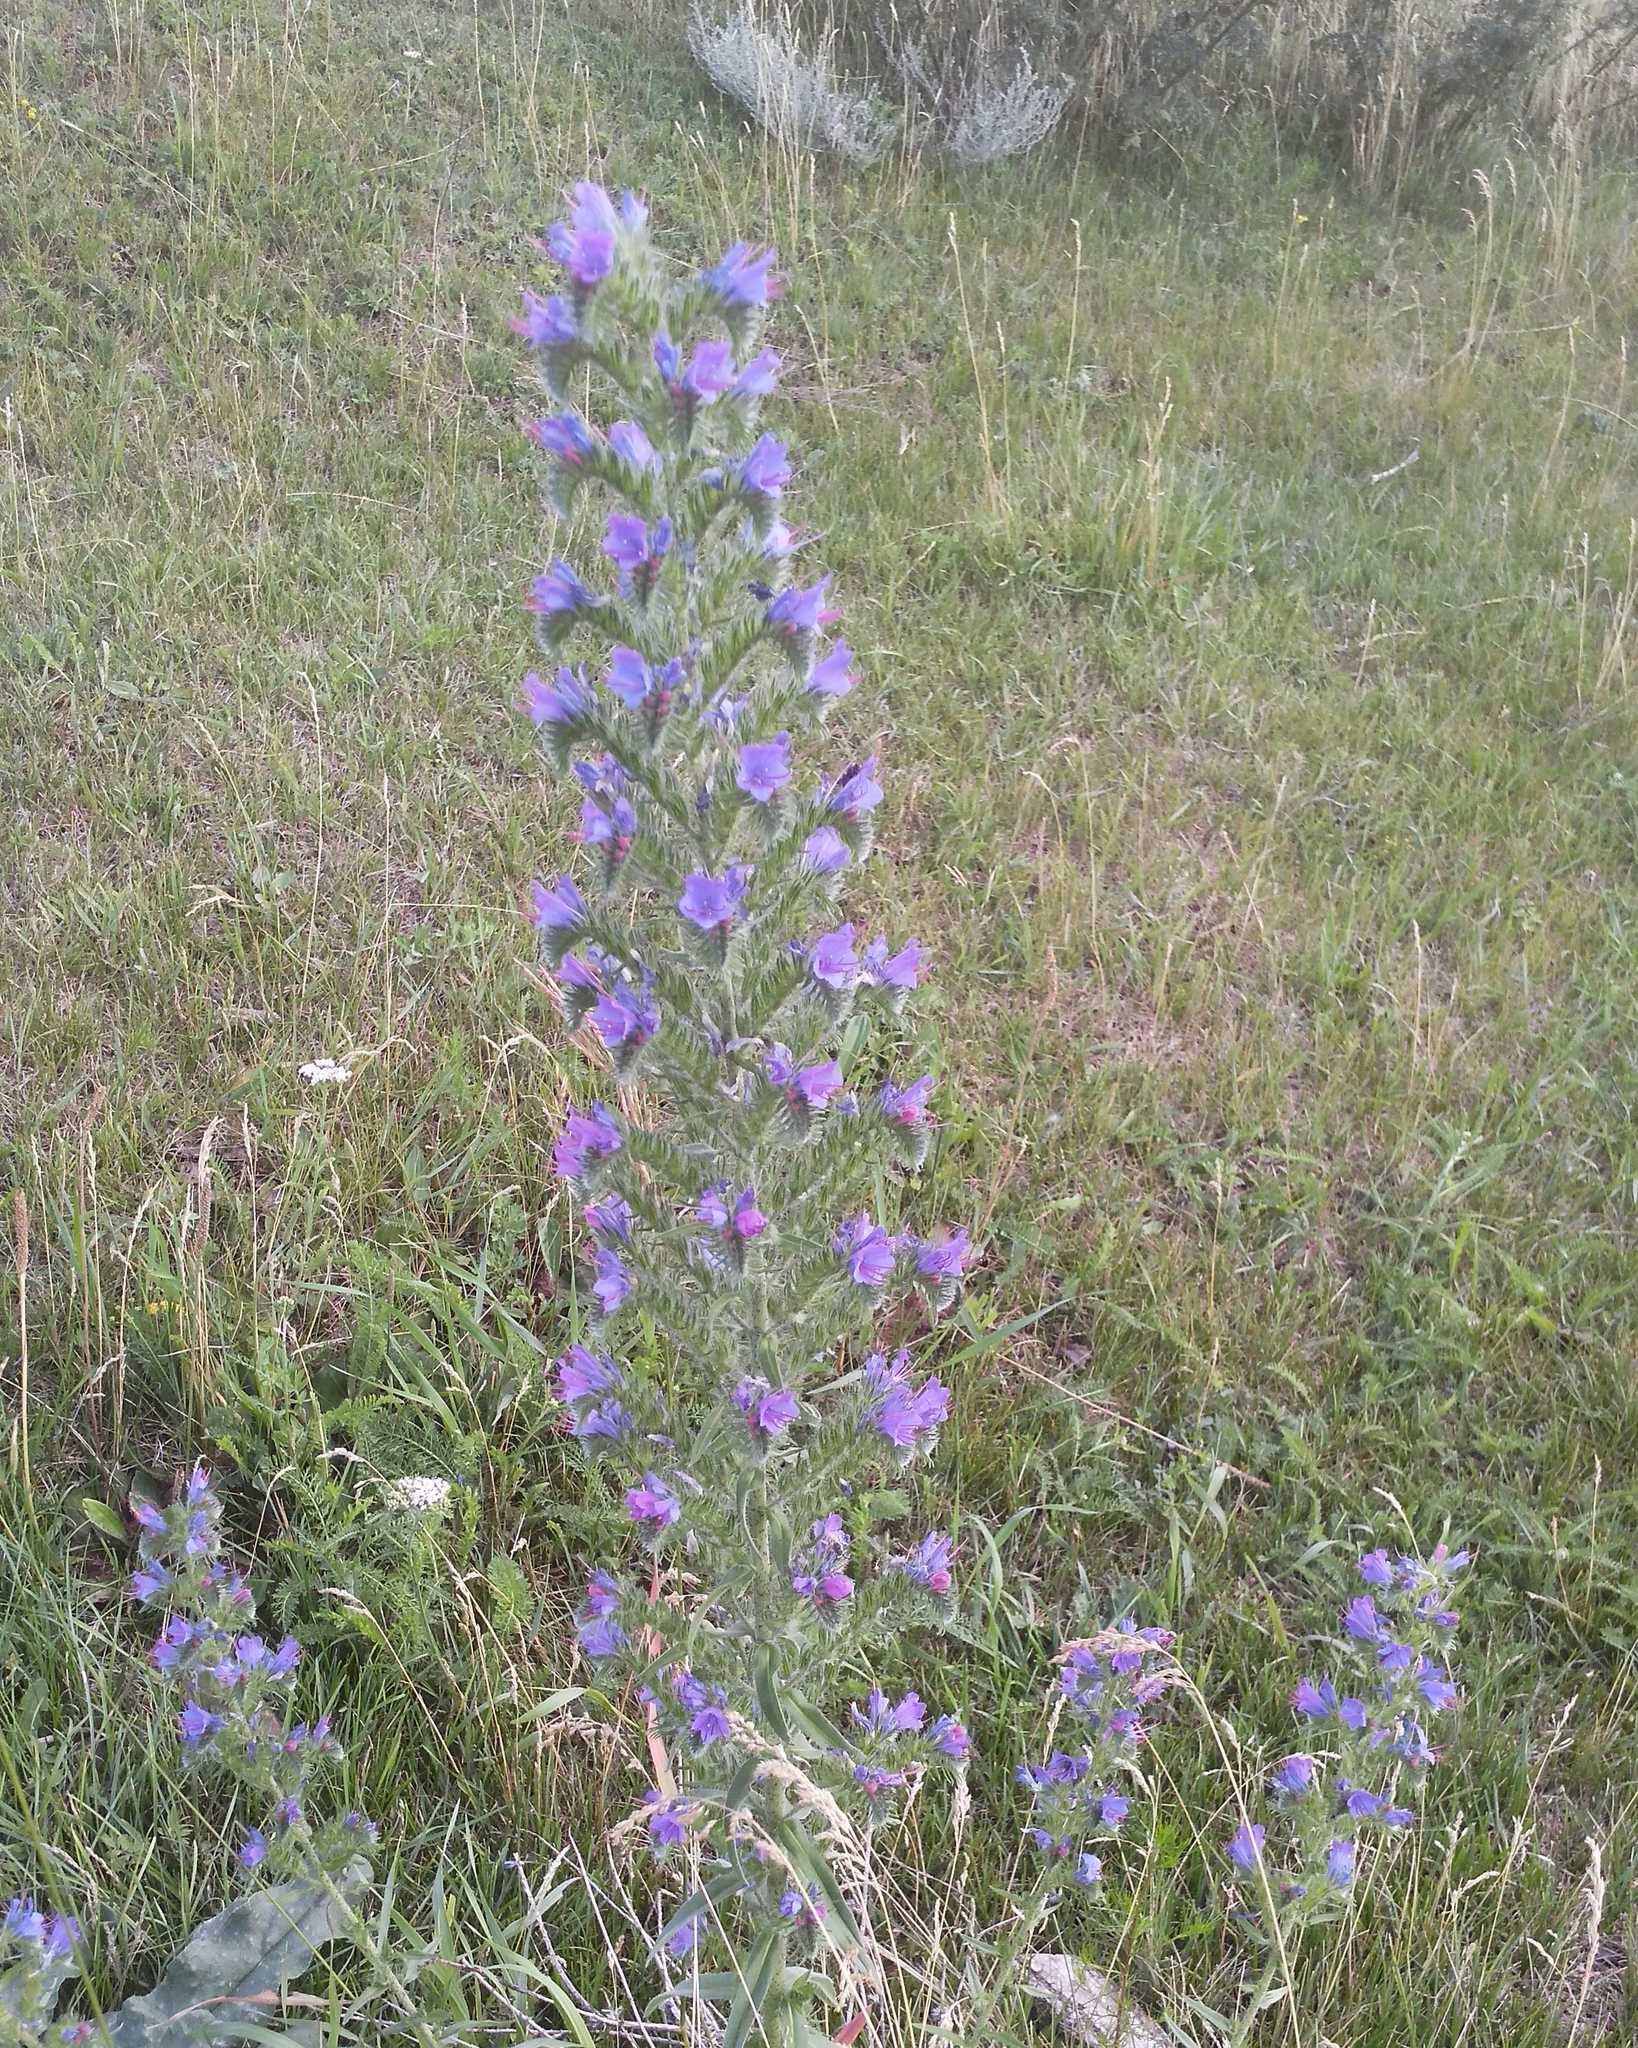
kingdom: Plantae
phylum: Tracheophyta
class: Magnoliopsida
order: Boraginales
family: Boraginaceae
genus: Echium
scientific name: Echium vulgare
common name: Common viper's bugloss
